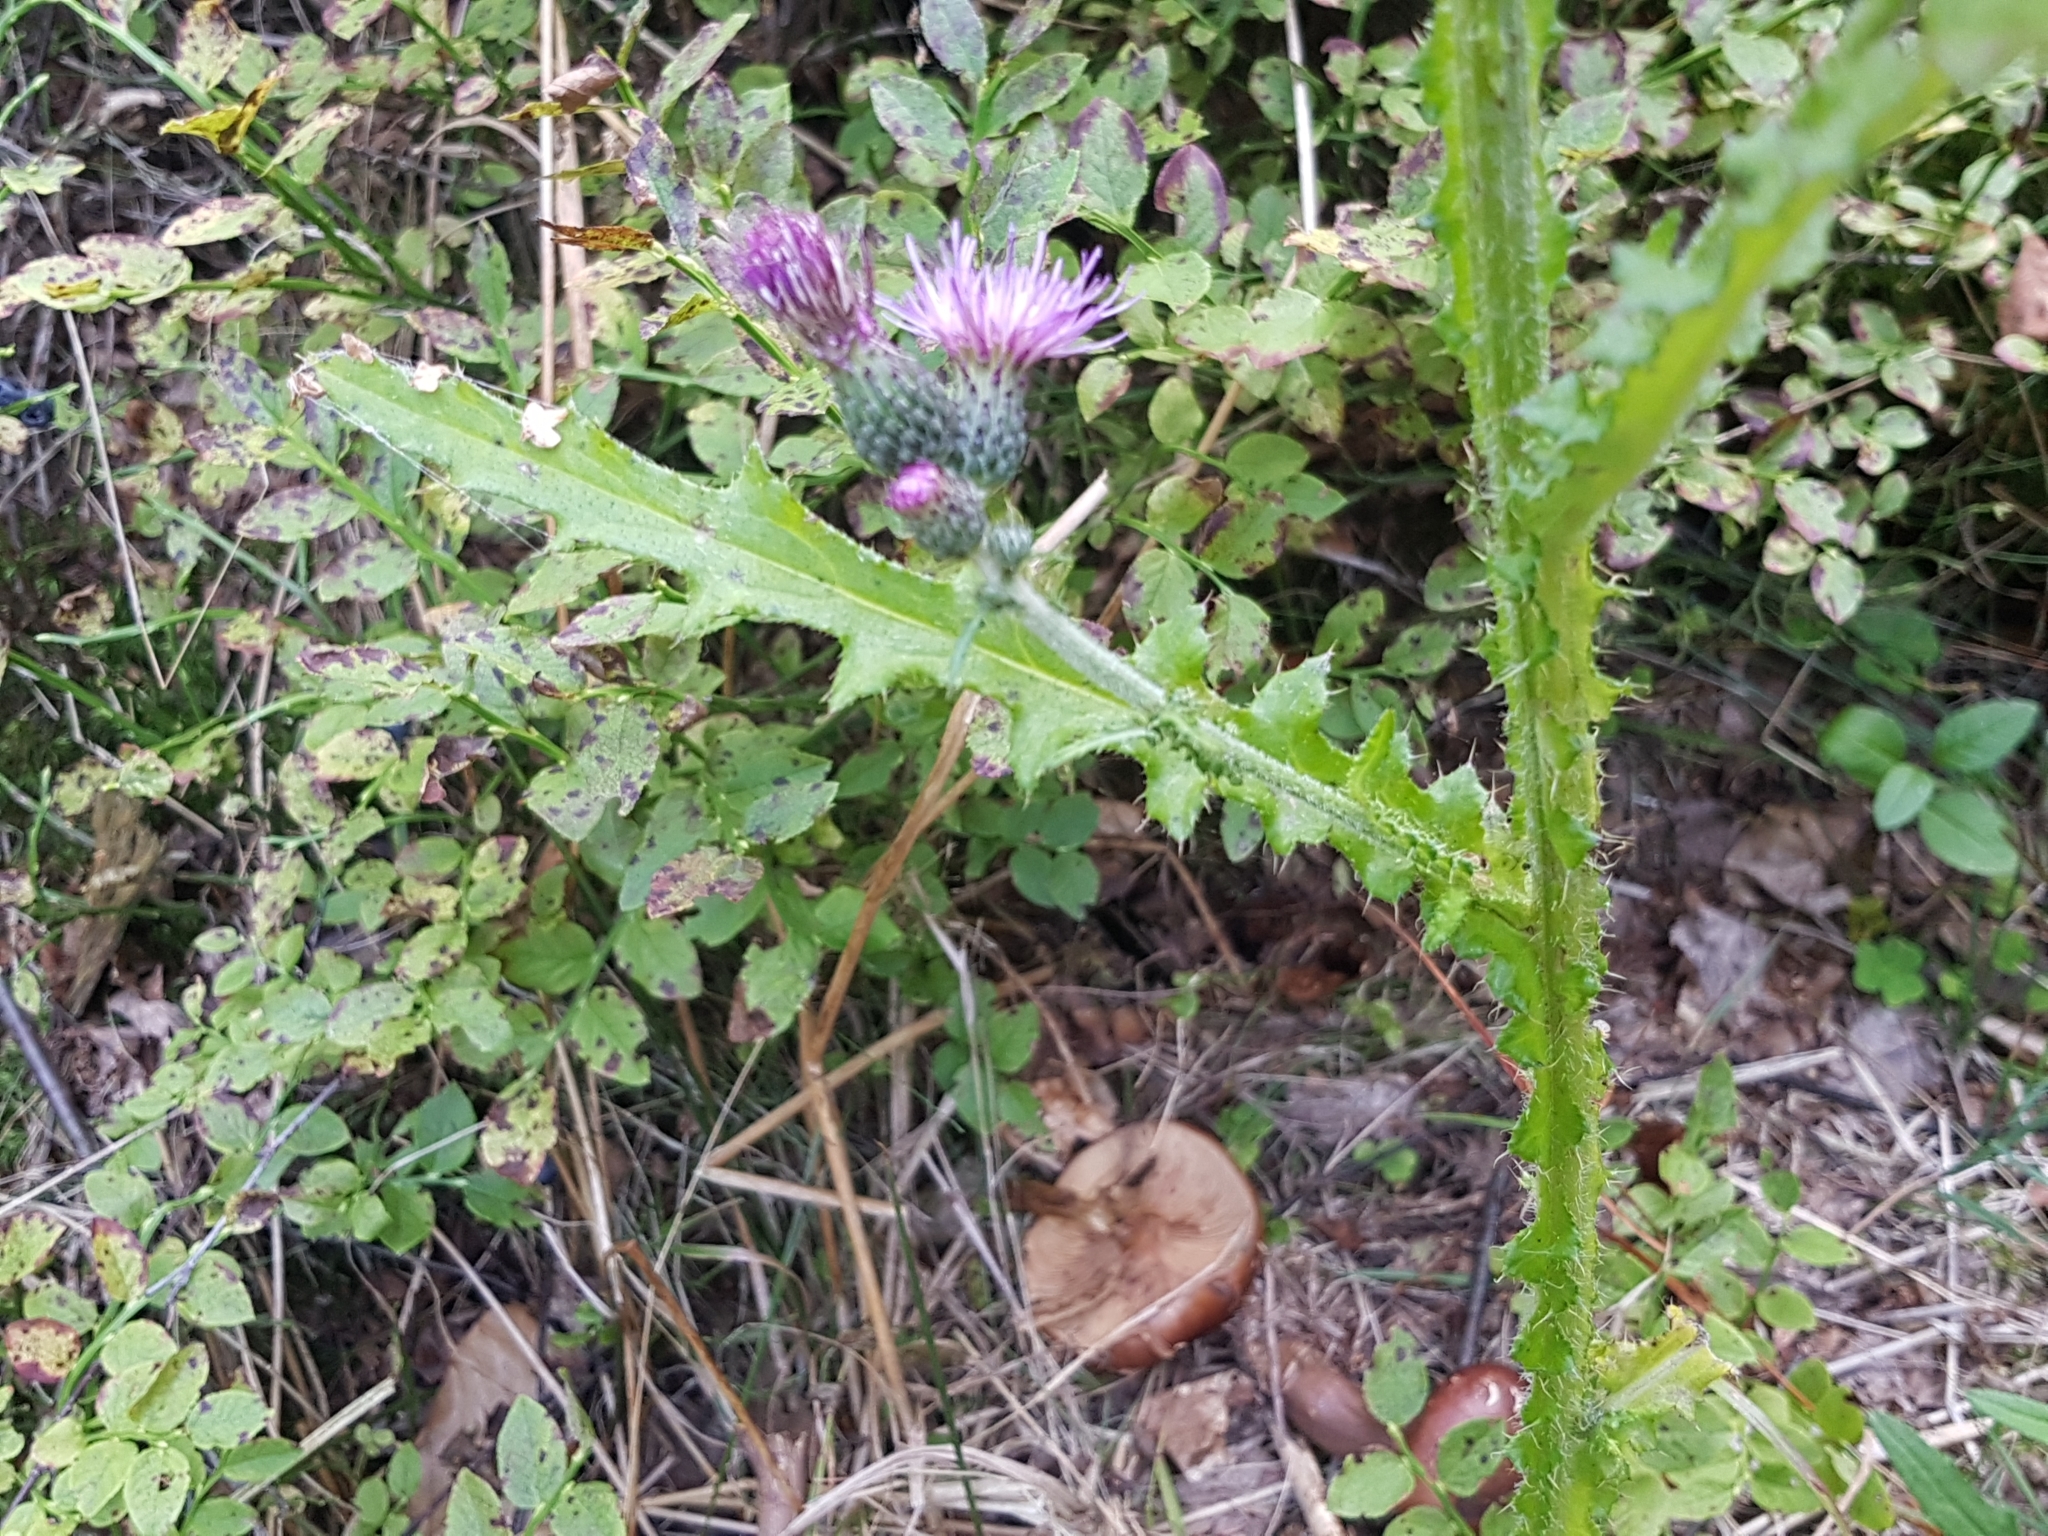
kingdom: Plantae
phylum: Tracheophyta
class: Magnoliopsida
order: Asterales
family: Asteraceae
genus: Cirsium
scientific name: Cirsium palustre
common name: Marsh thistle
